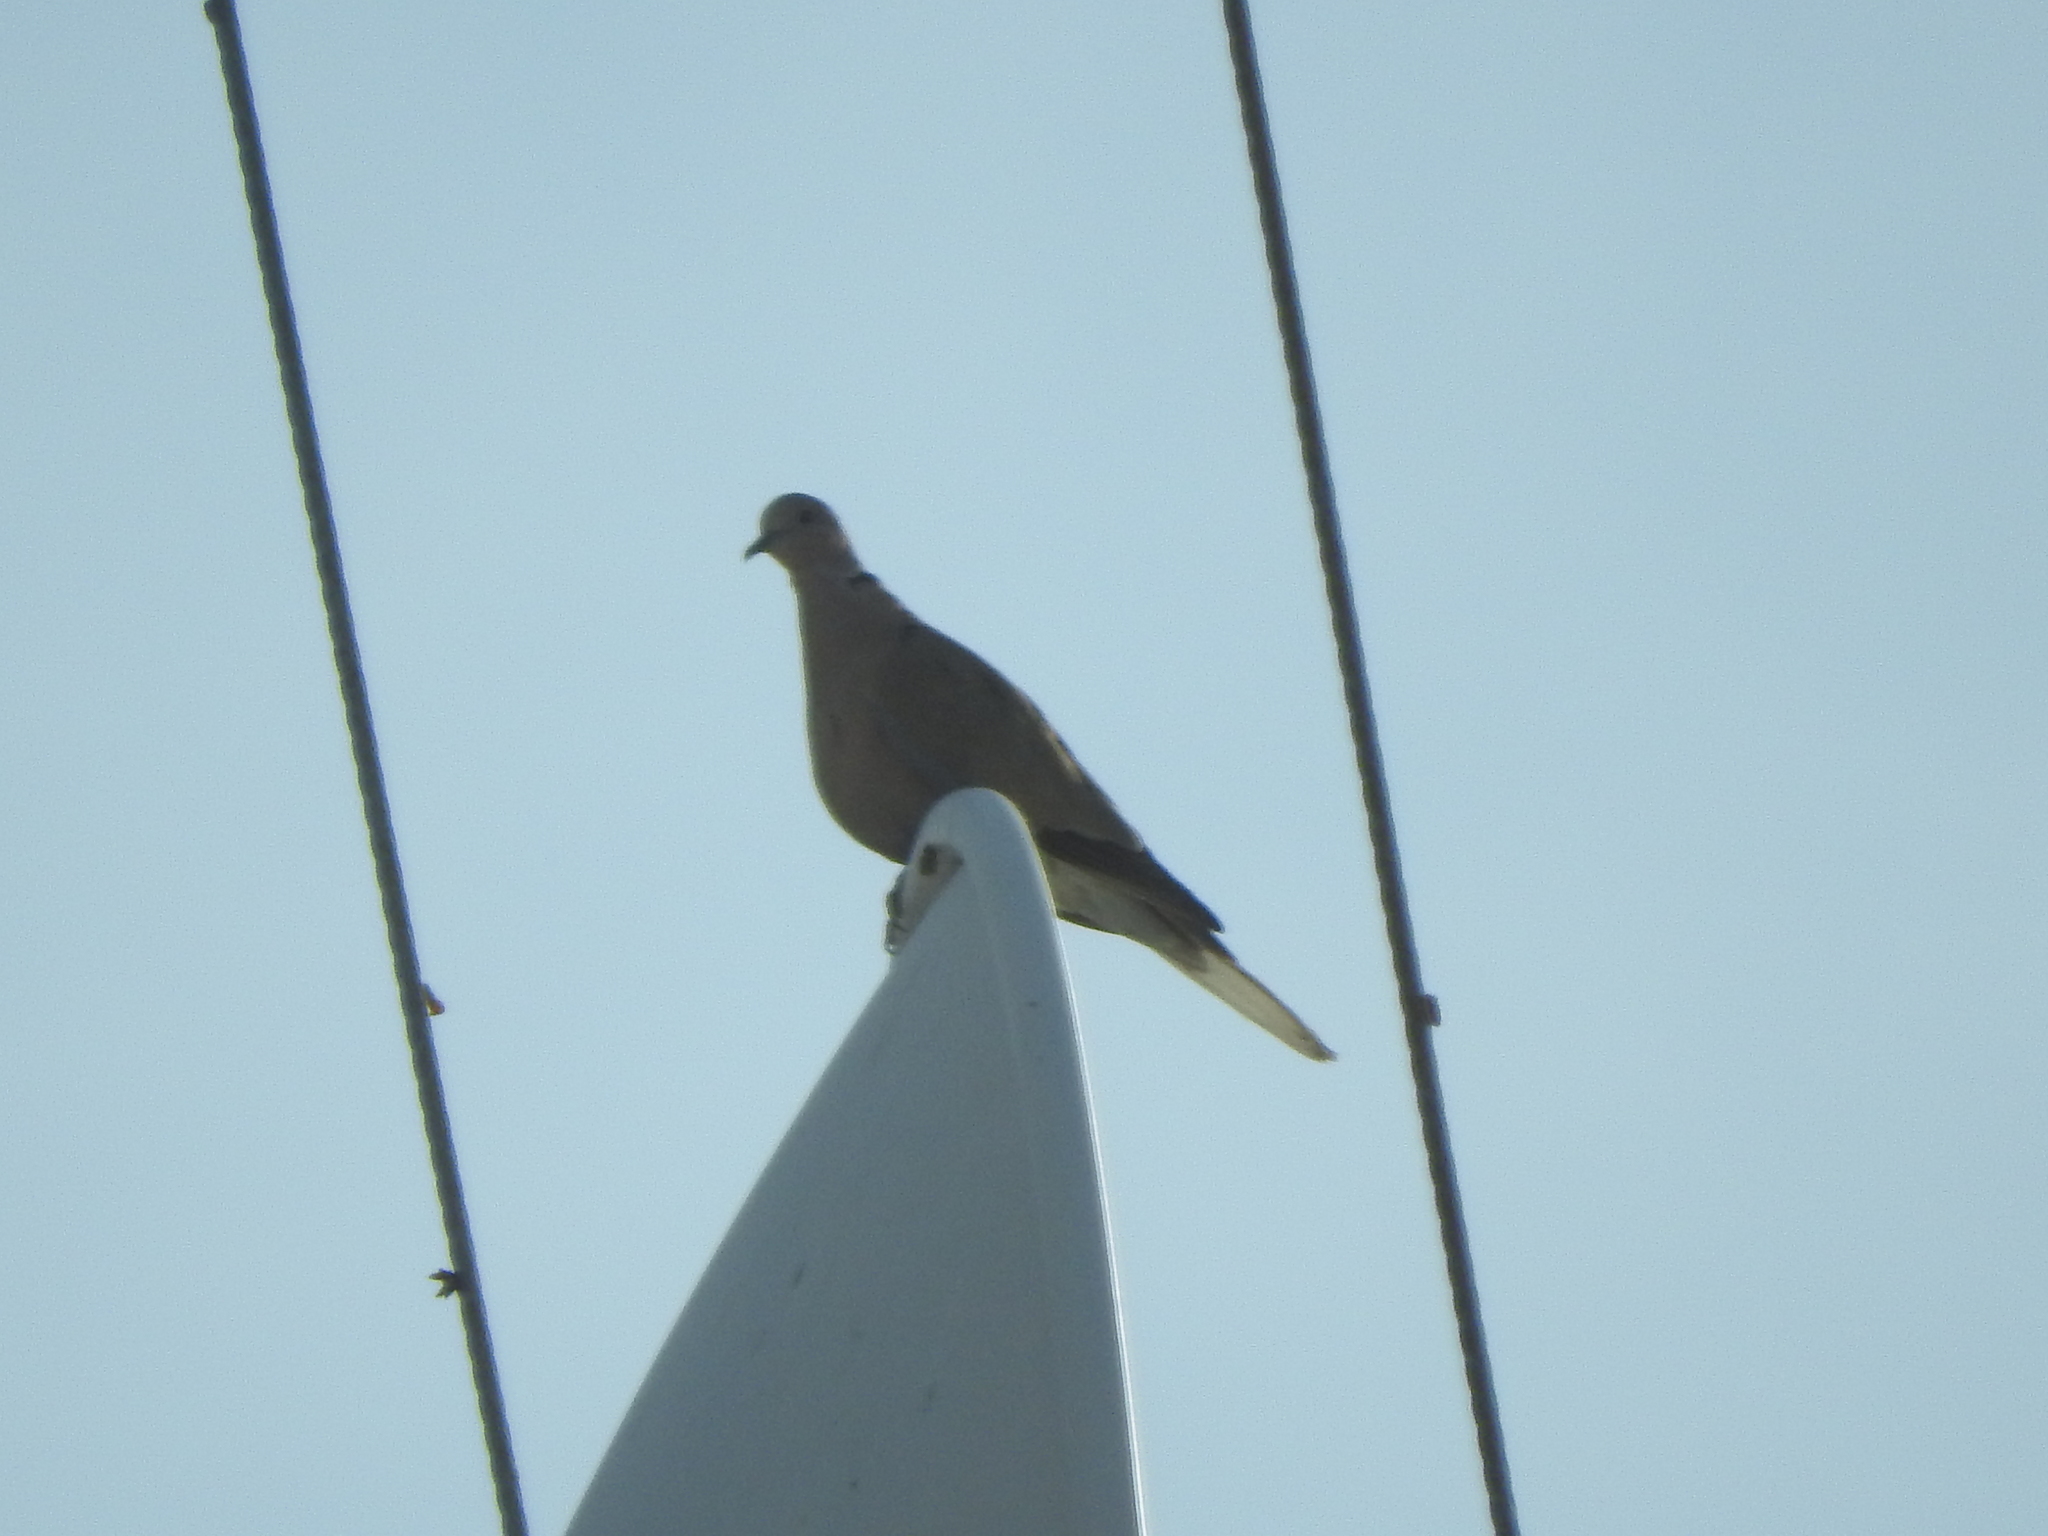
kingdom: Animalia
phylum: Chordata
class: Aves
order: Columbiformes
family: Columbidae
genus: Streptopelia
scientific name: Streptopelia decaocto
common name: Eurasian collared dove
